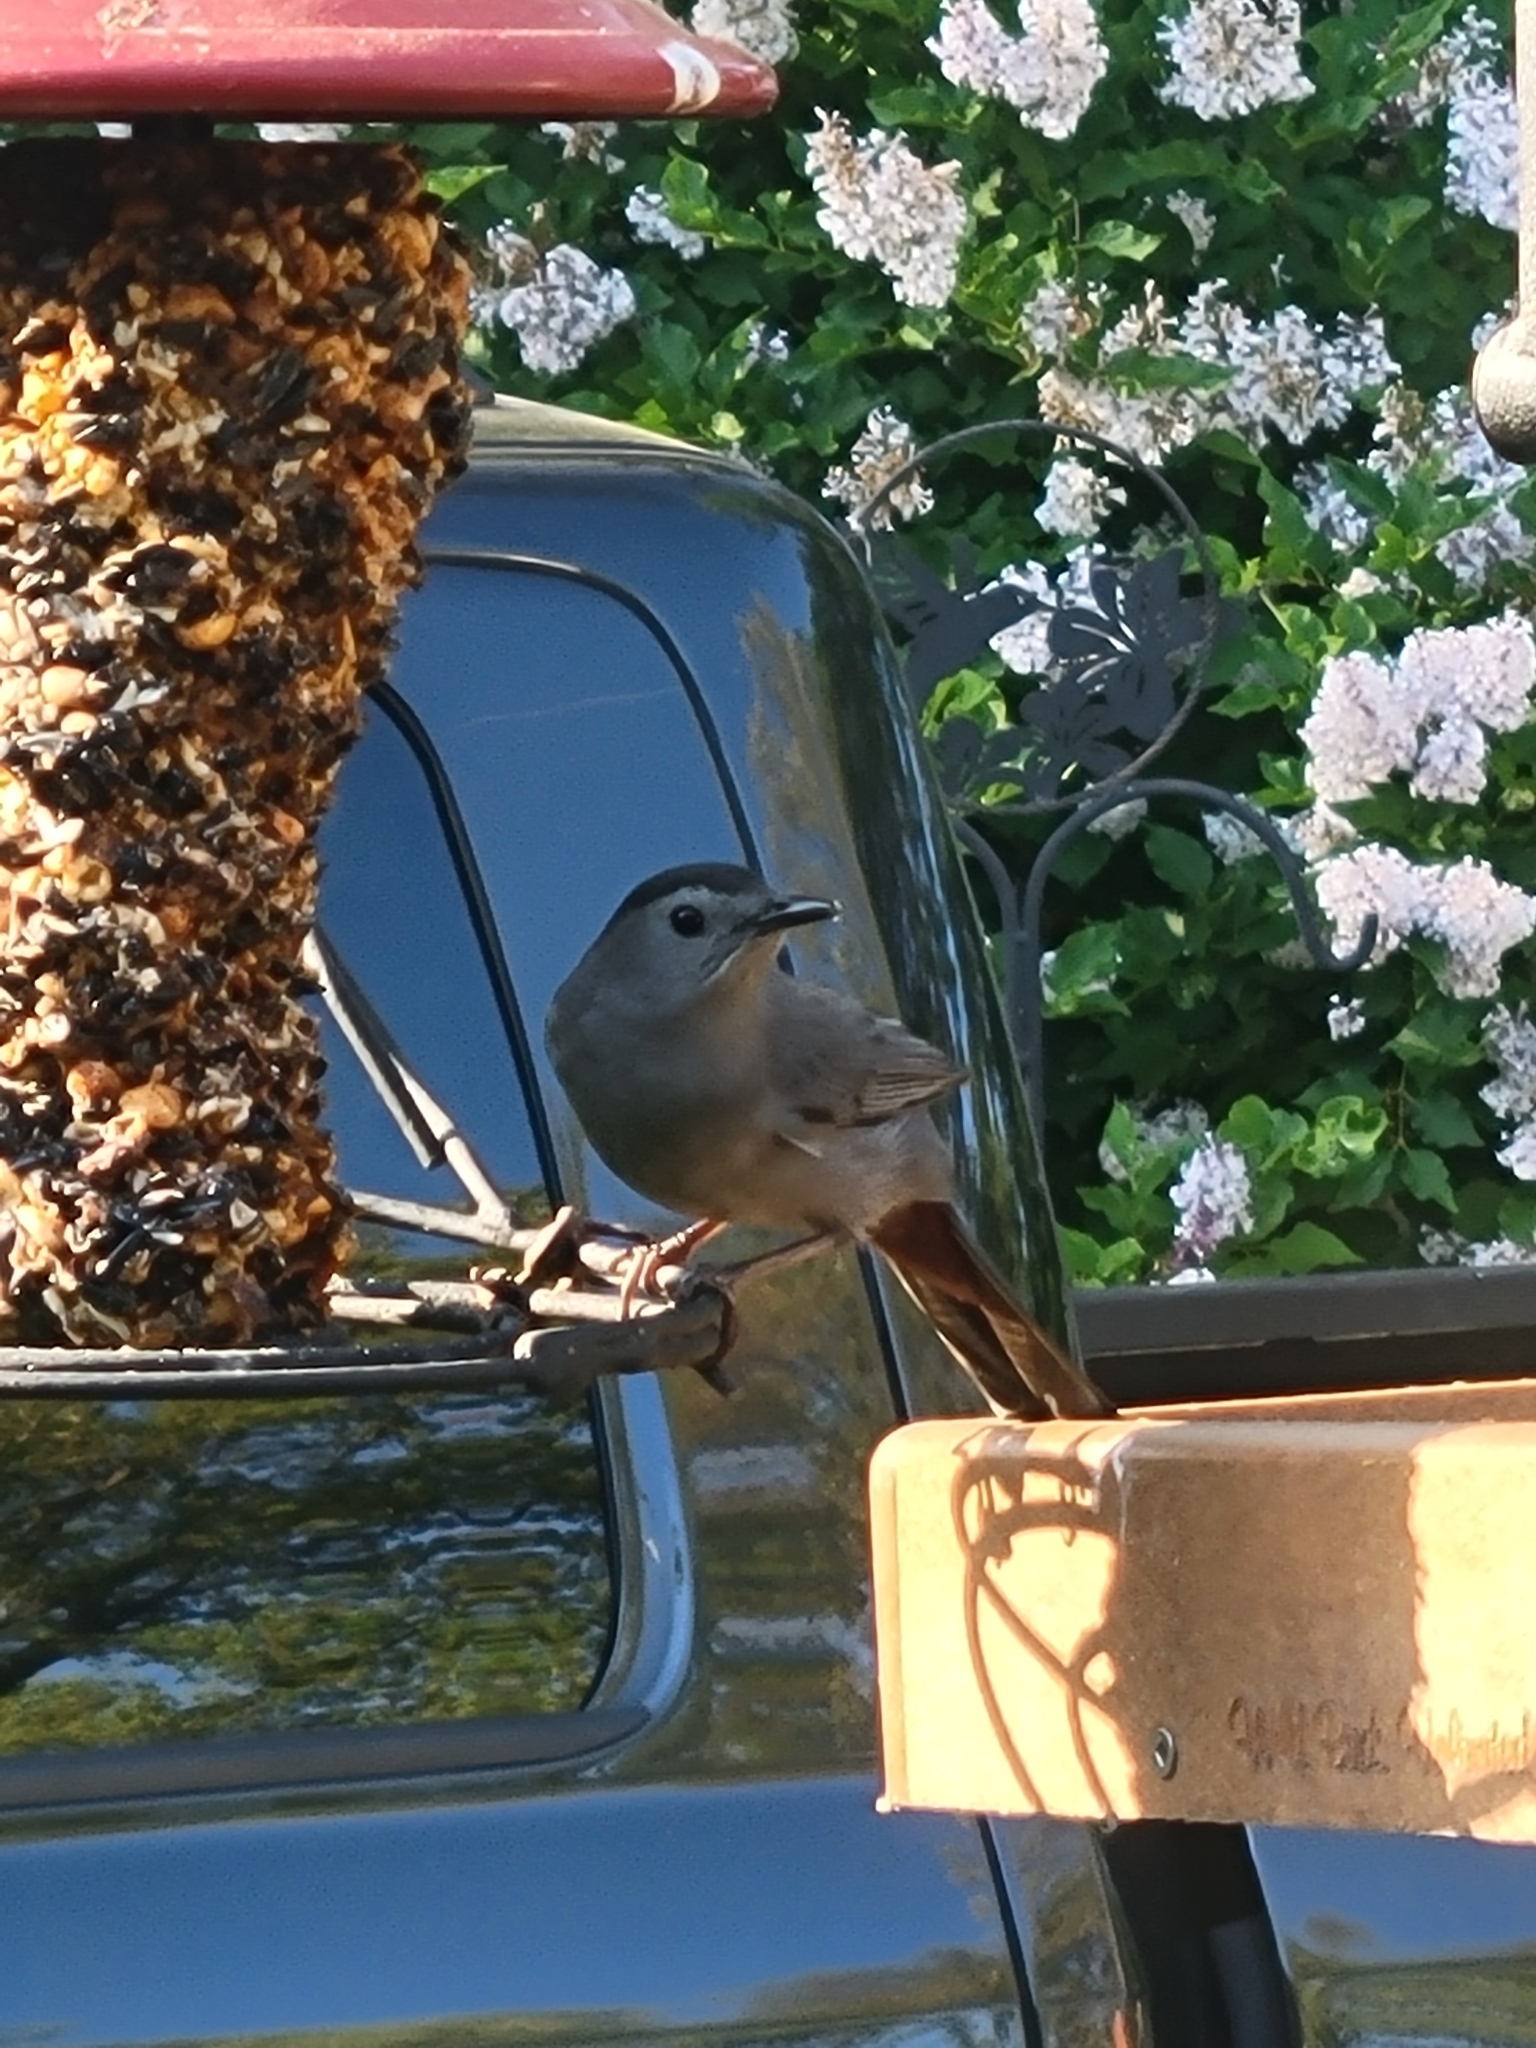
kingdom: Animalia
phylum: Chordata
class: Aves
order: Passeriformes
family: Mimidae
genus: Dumetella
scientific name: Dumetella carolinensis
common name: Gray catbird
